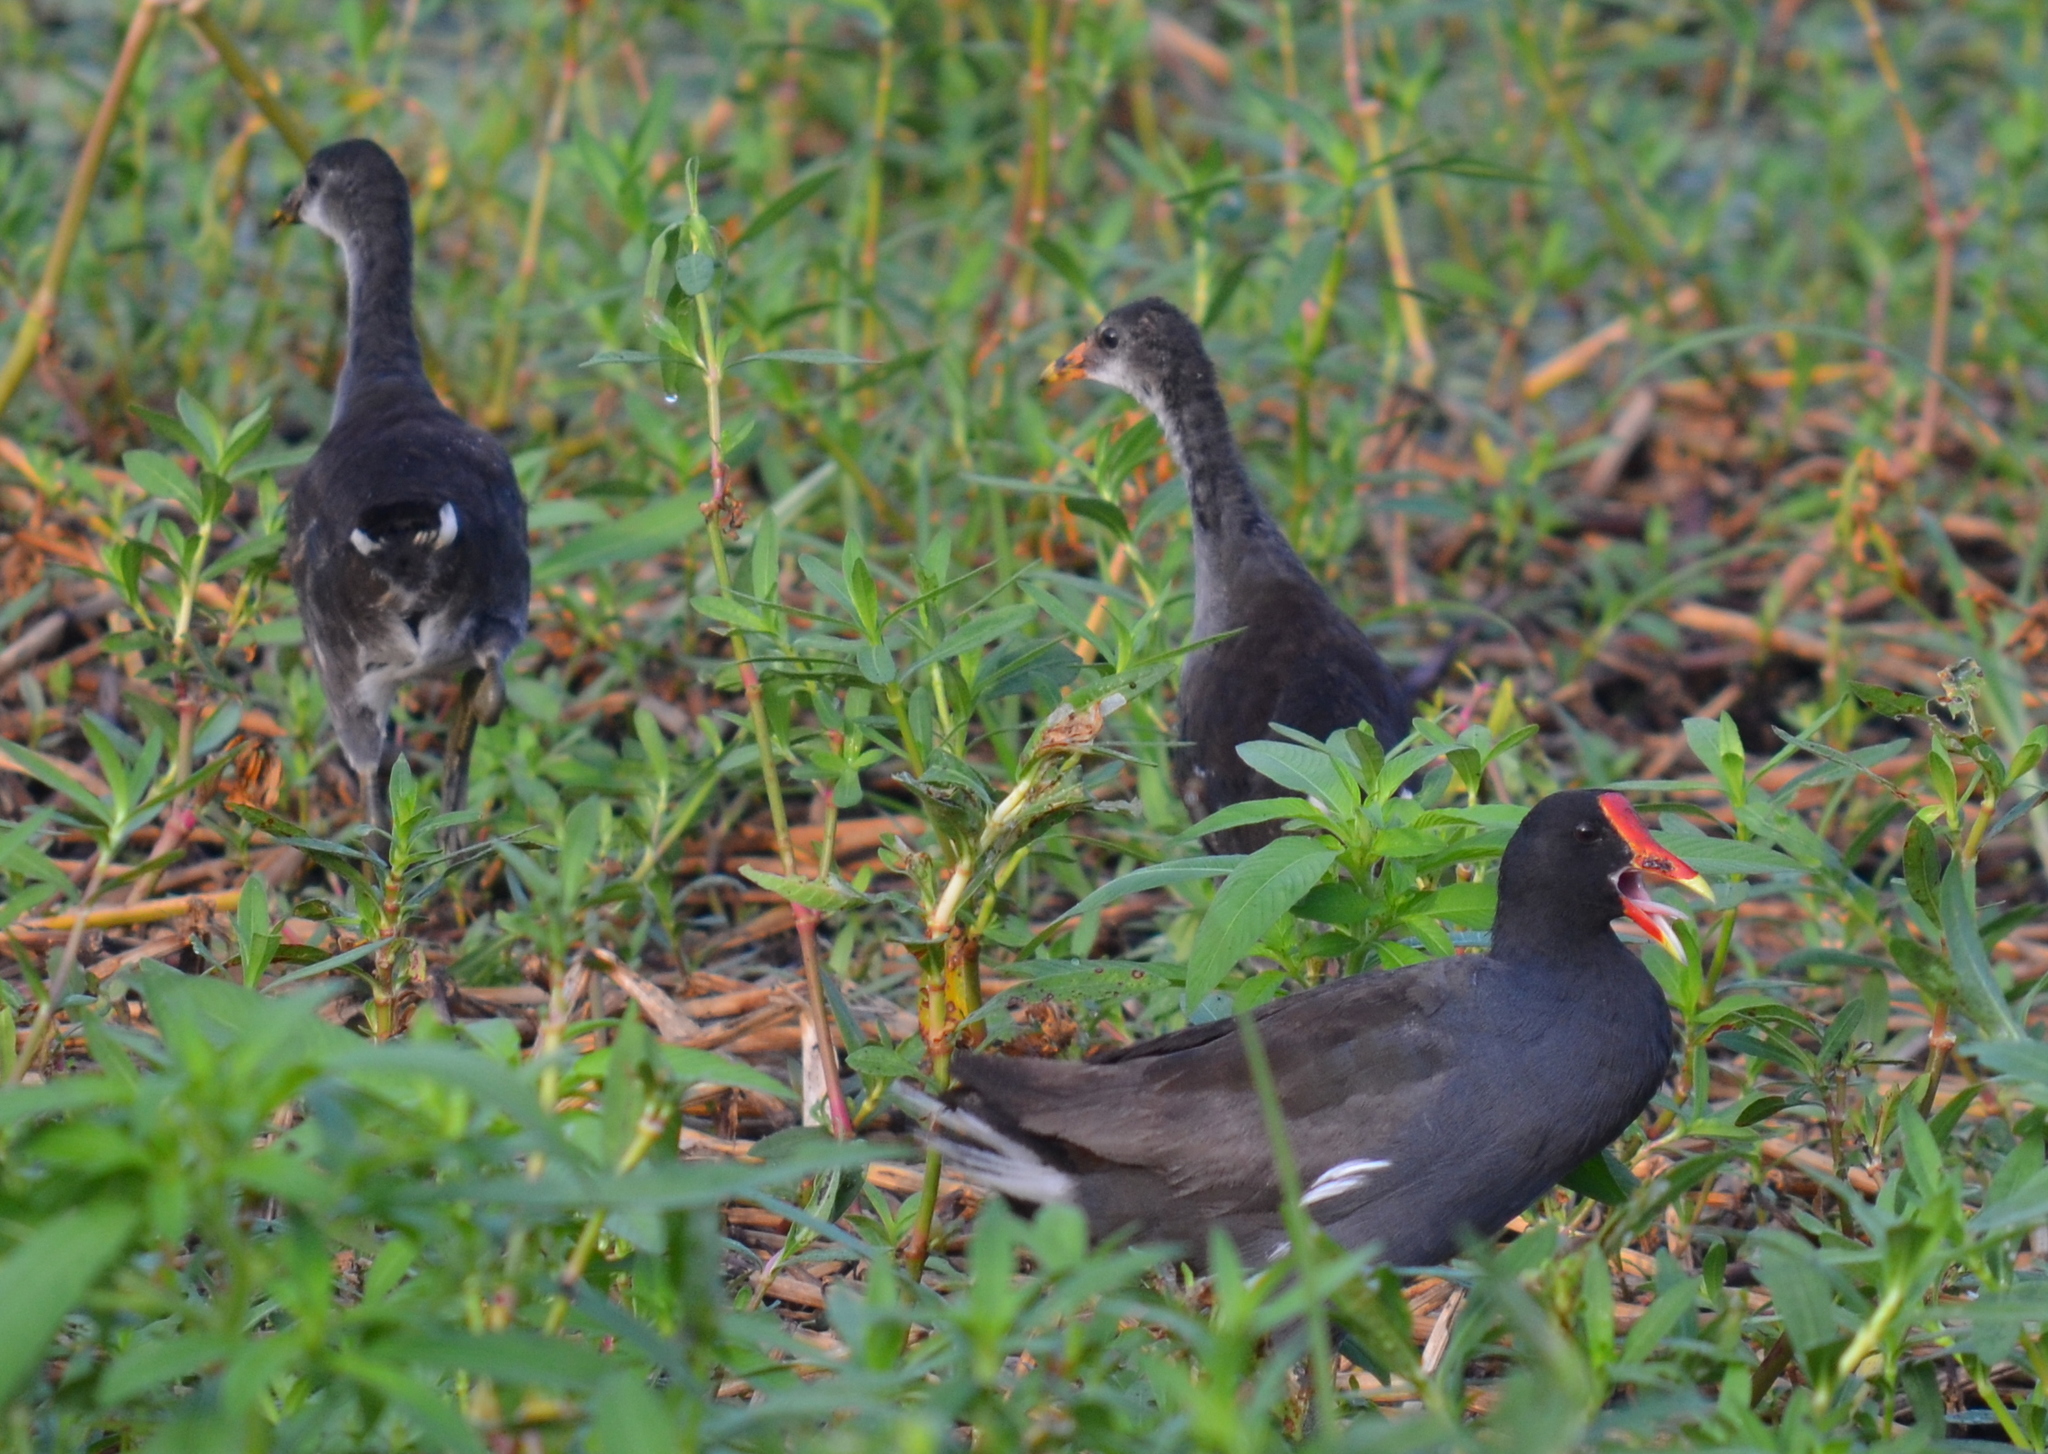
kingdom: Animalia
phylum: Chordata
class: Aves
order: Gruiformes
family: Rallidae
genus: Gallinula
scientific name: Gallinula chloropus
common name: Common moorhen
